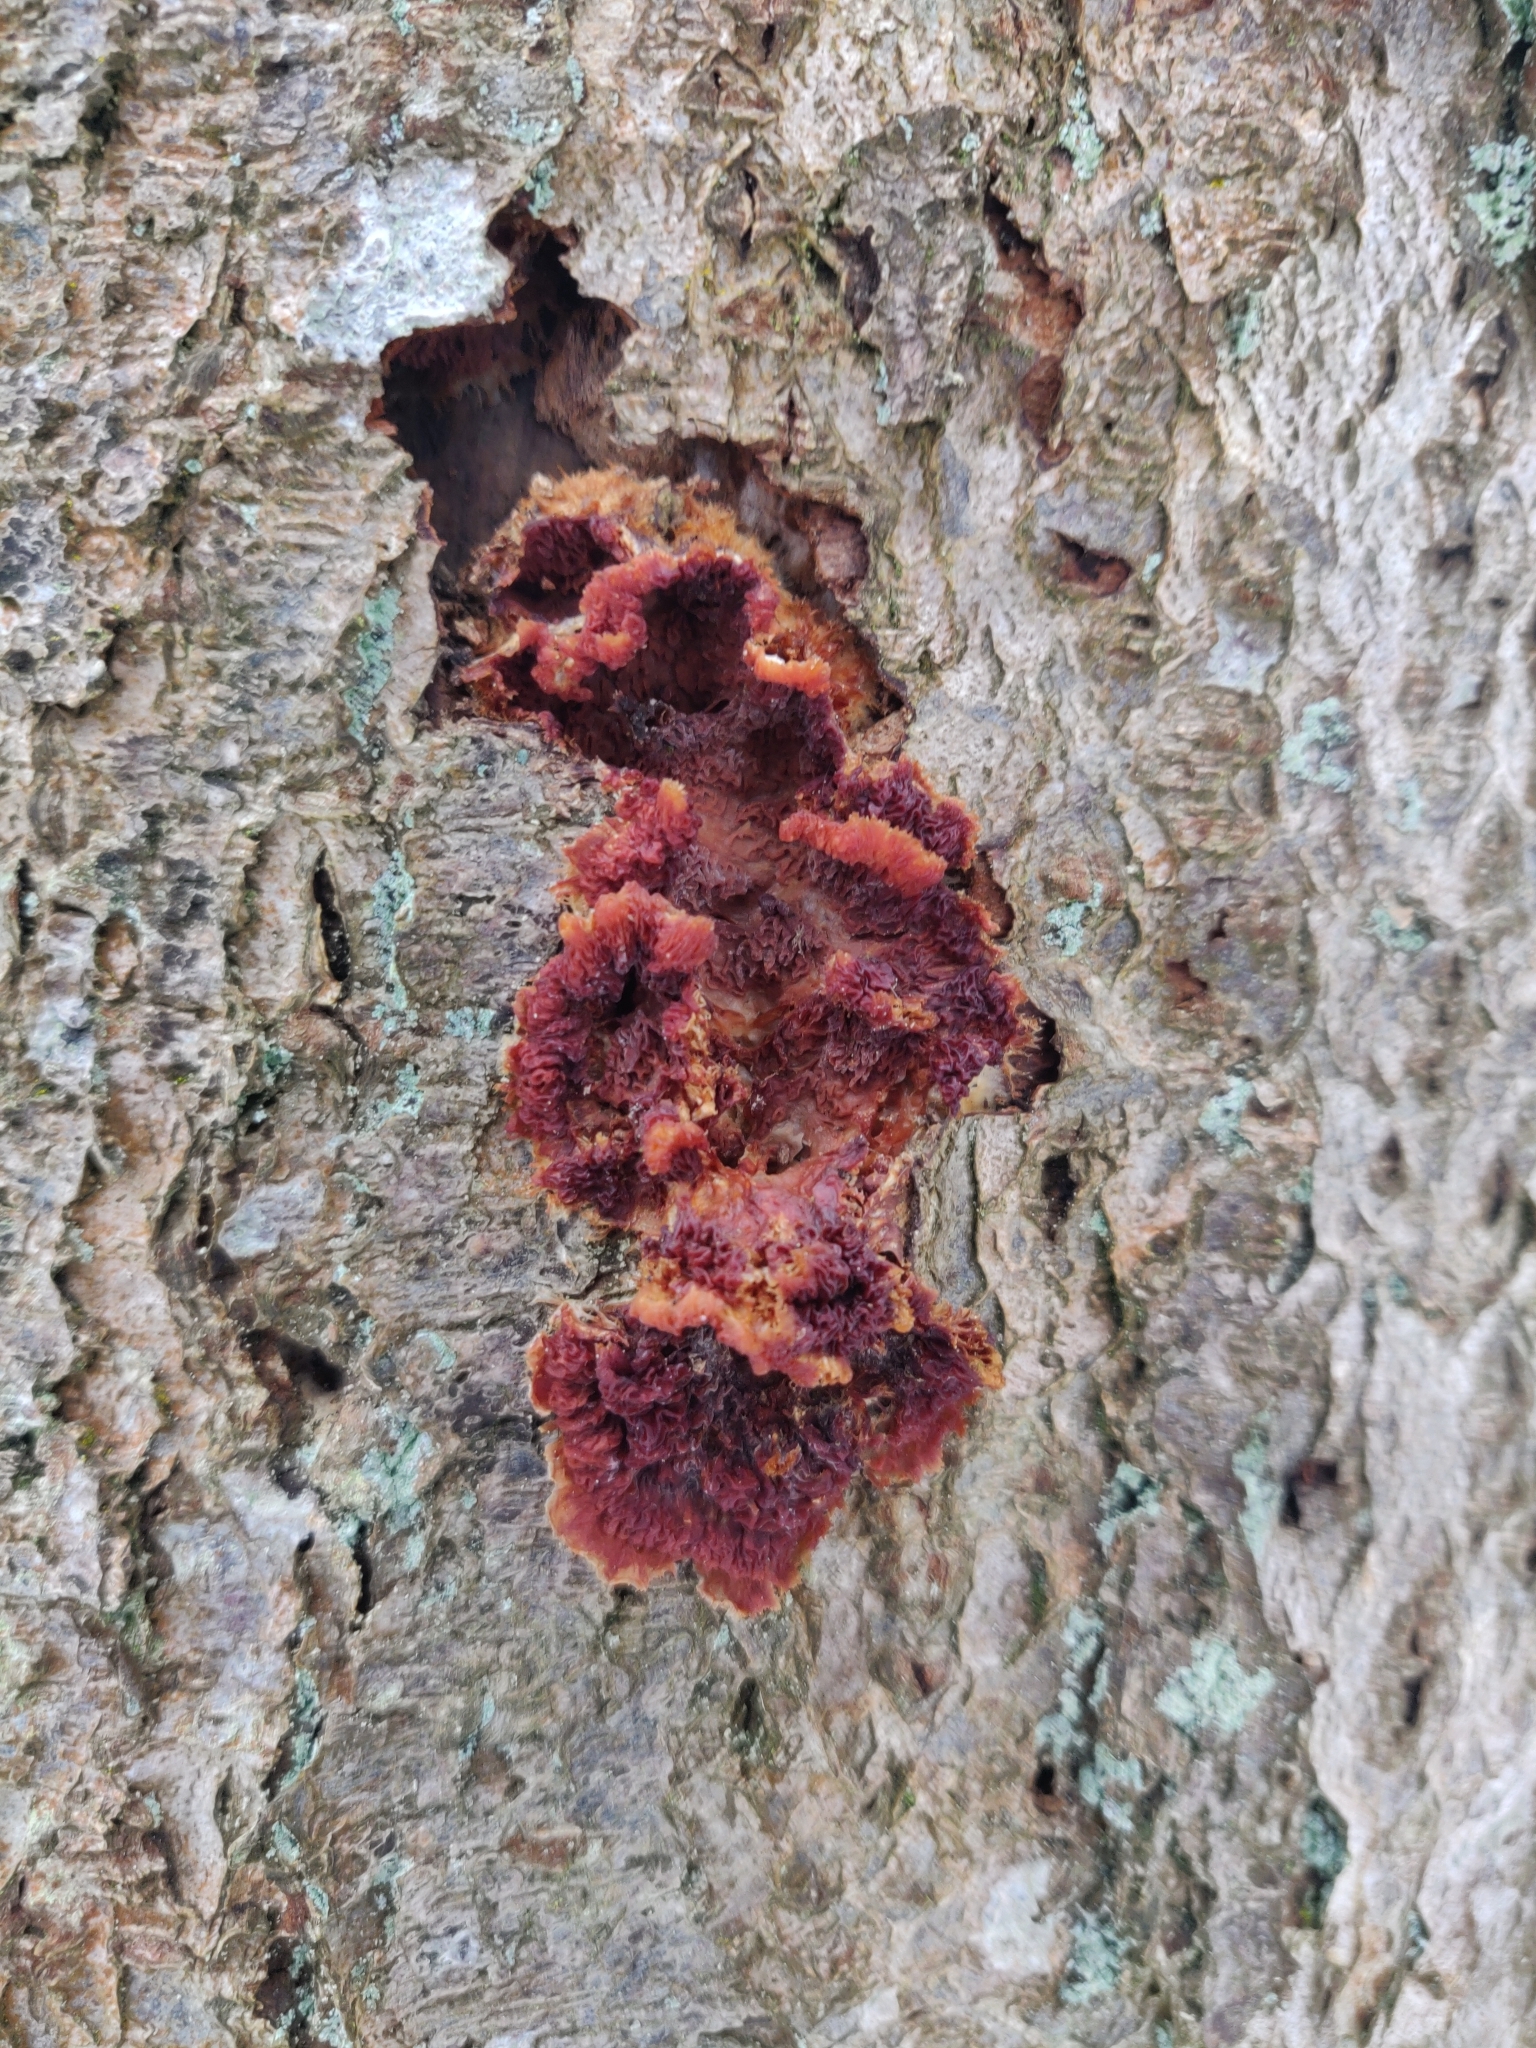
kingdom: Fungi
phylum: Basidiomycota
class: Agaricomycetes
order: Polyporales
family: Meruliaceae
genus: Phlebia
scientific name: Phlebia radiata
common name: Wrinkled crust
